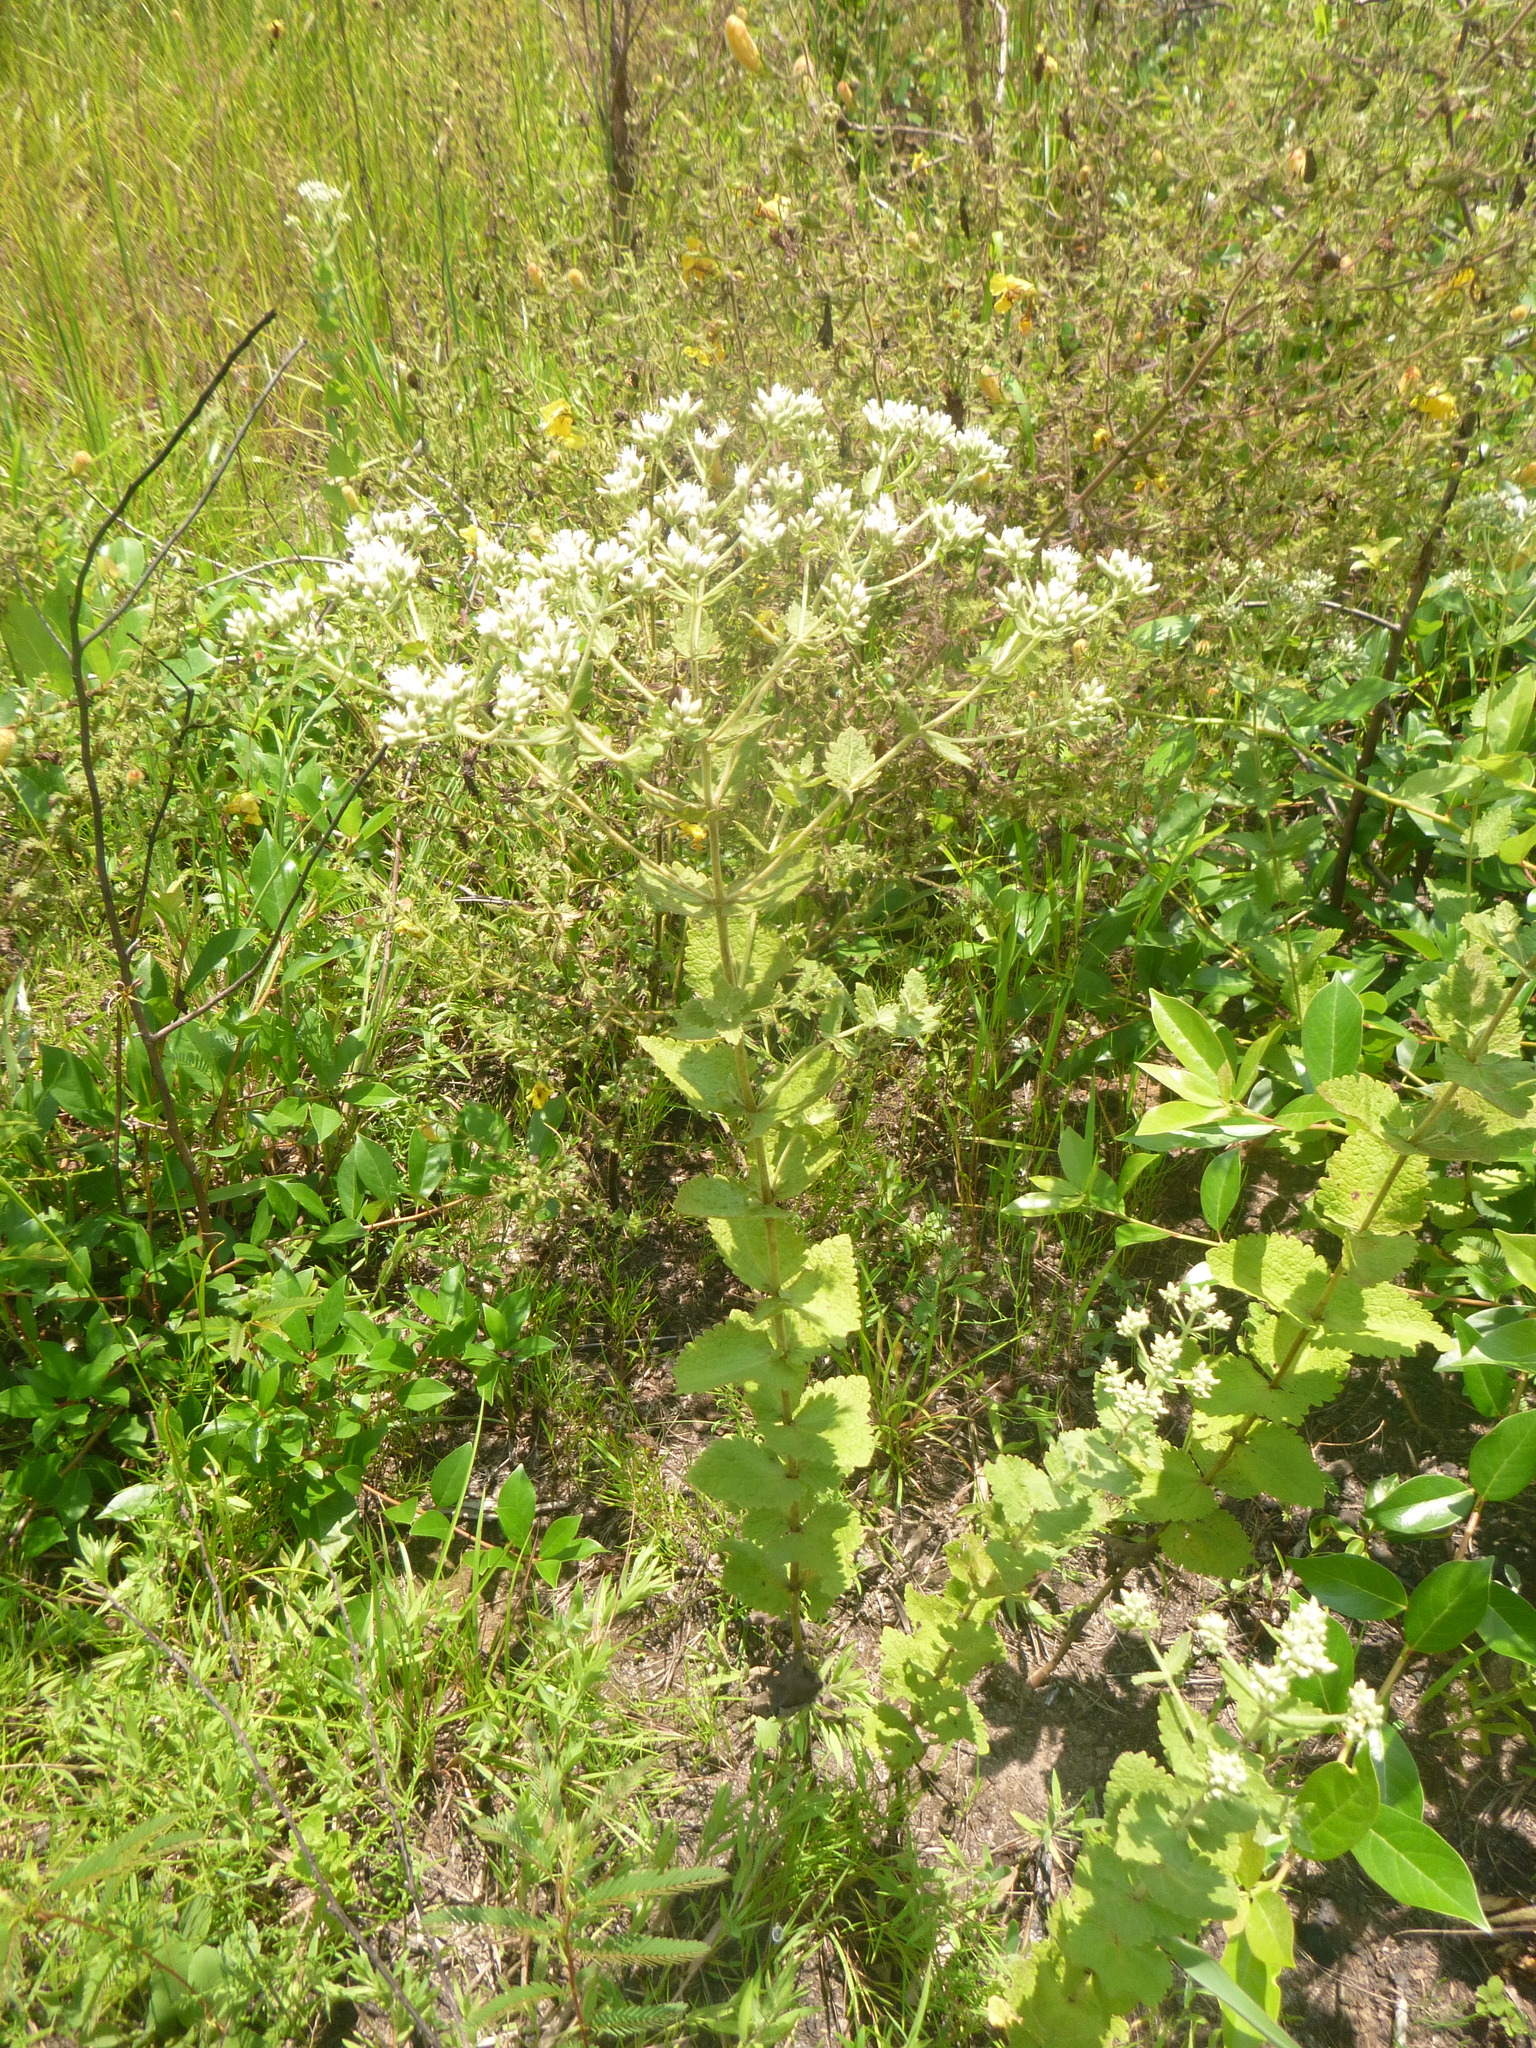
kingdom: Plantae
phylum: Tracheophyta
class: Magnoliopsida
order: Asterales
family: Asteraceae
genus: Eupatorium
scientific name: Eupatorium rotundifolium
